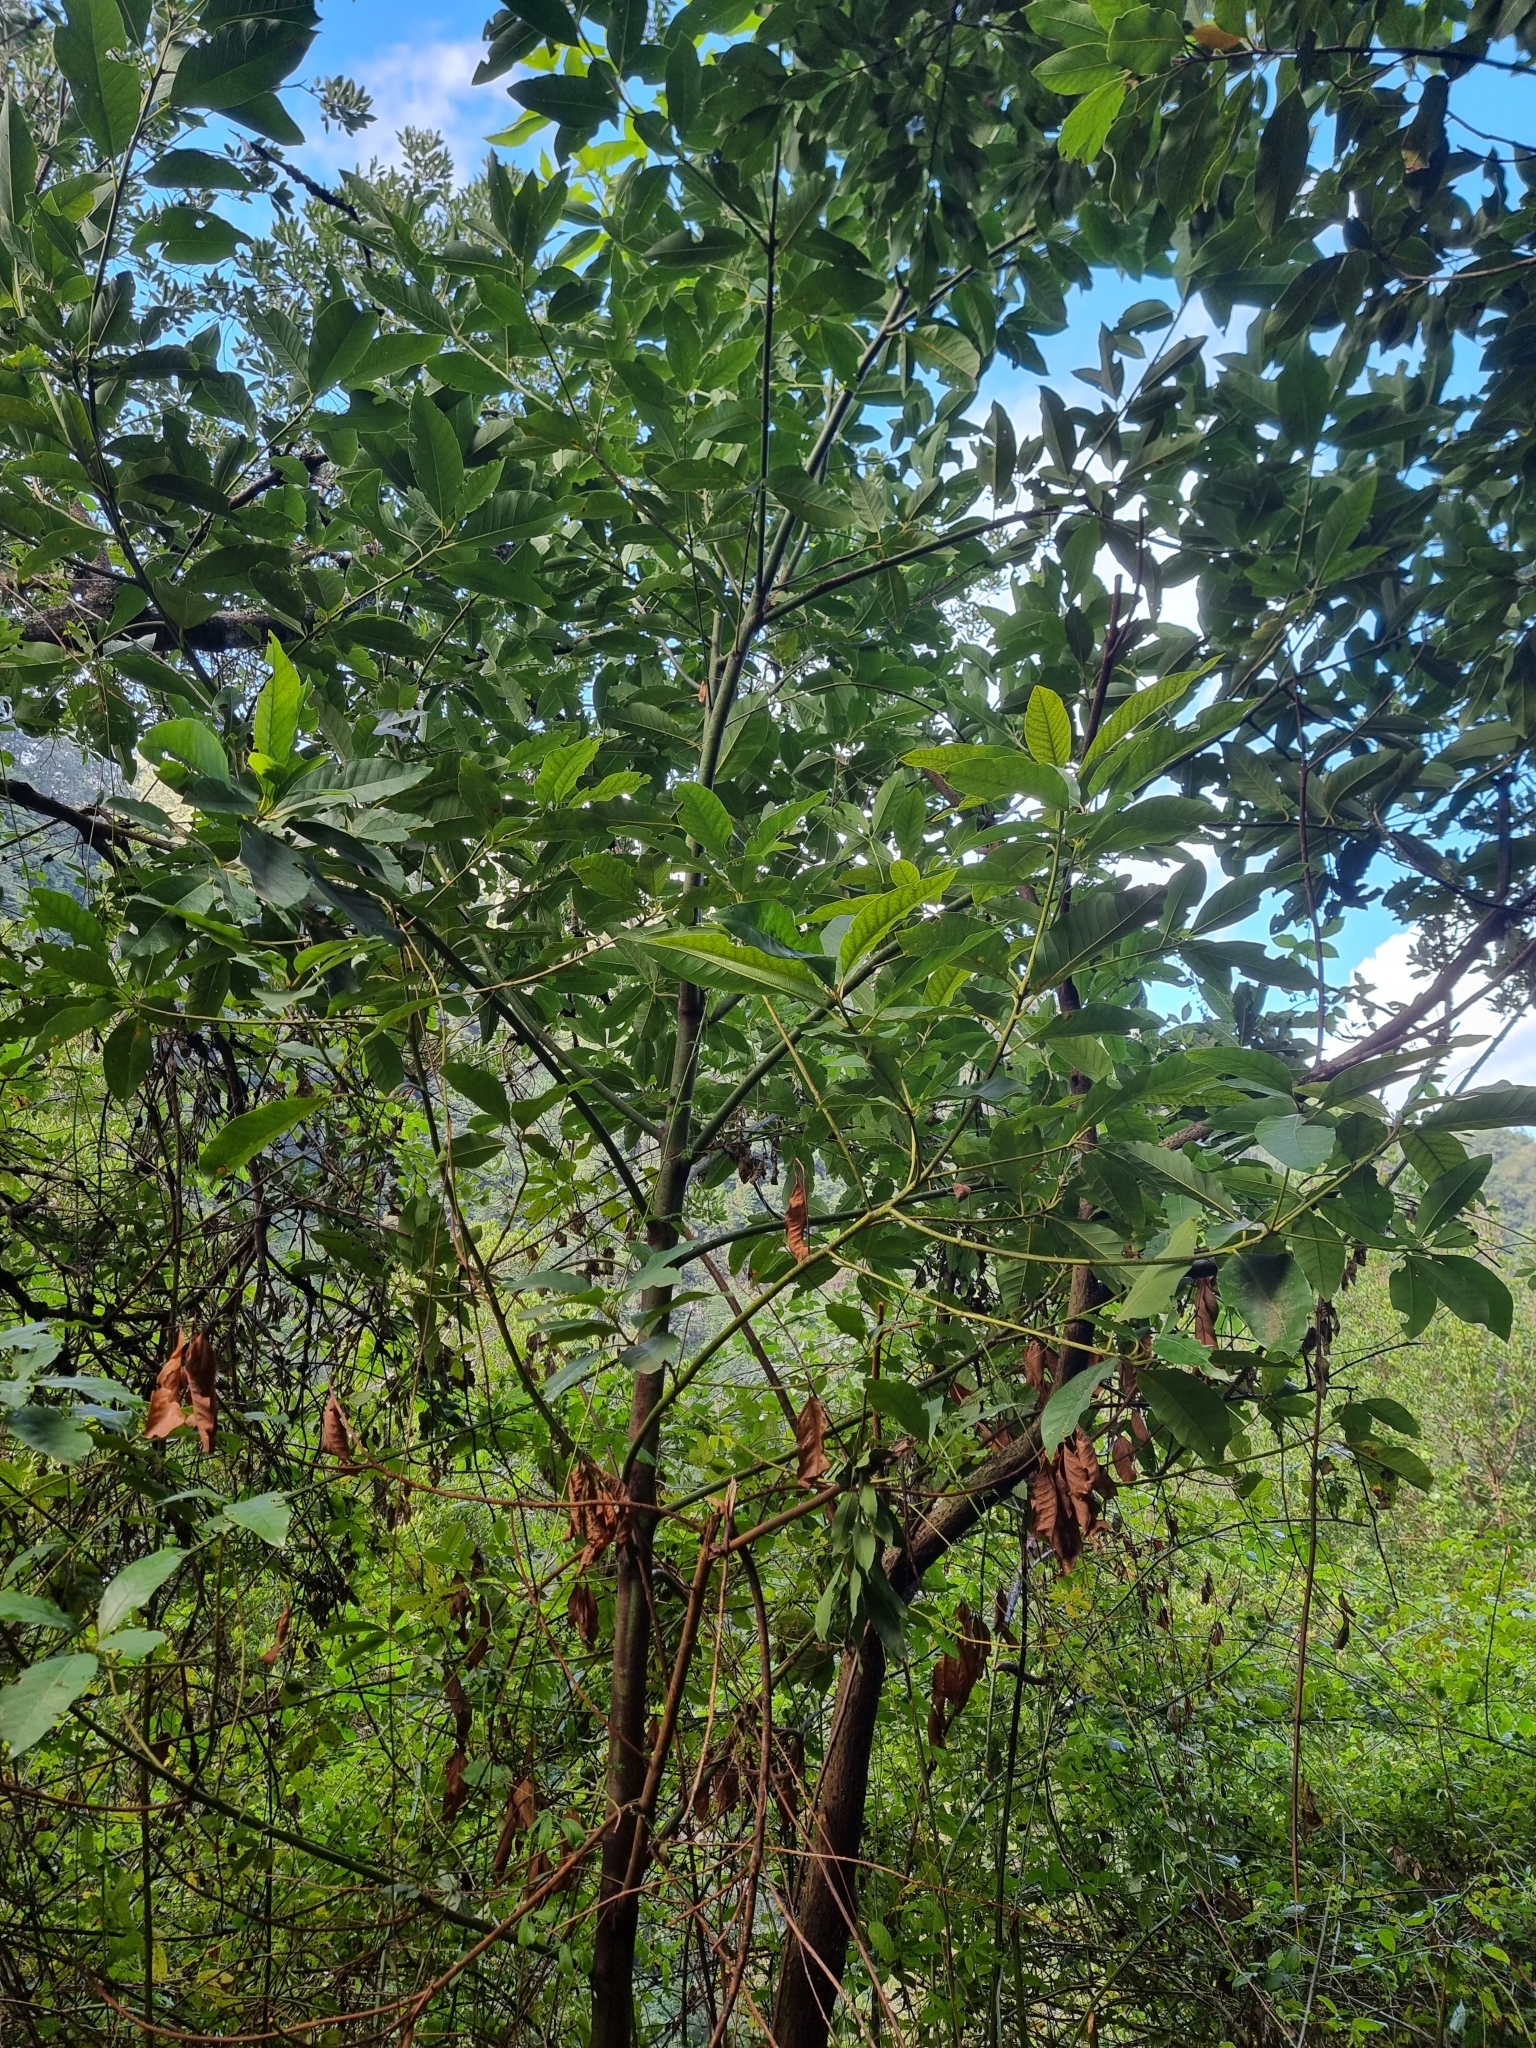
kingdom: Plantae
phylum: Tracheophyta
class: Magnoliopsida
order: Laurales
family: Lauraceae
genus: Persea
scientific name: Persea indica
